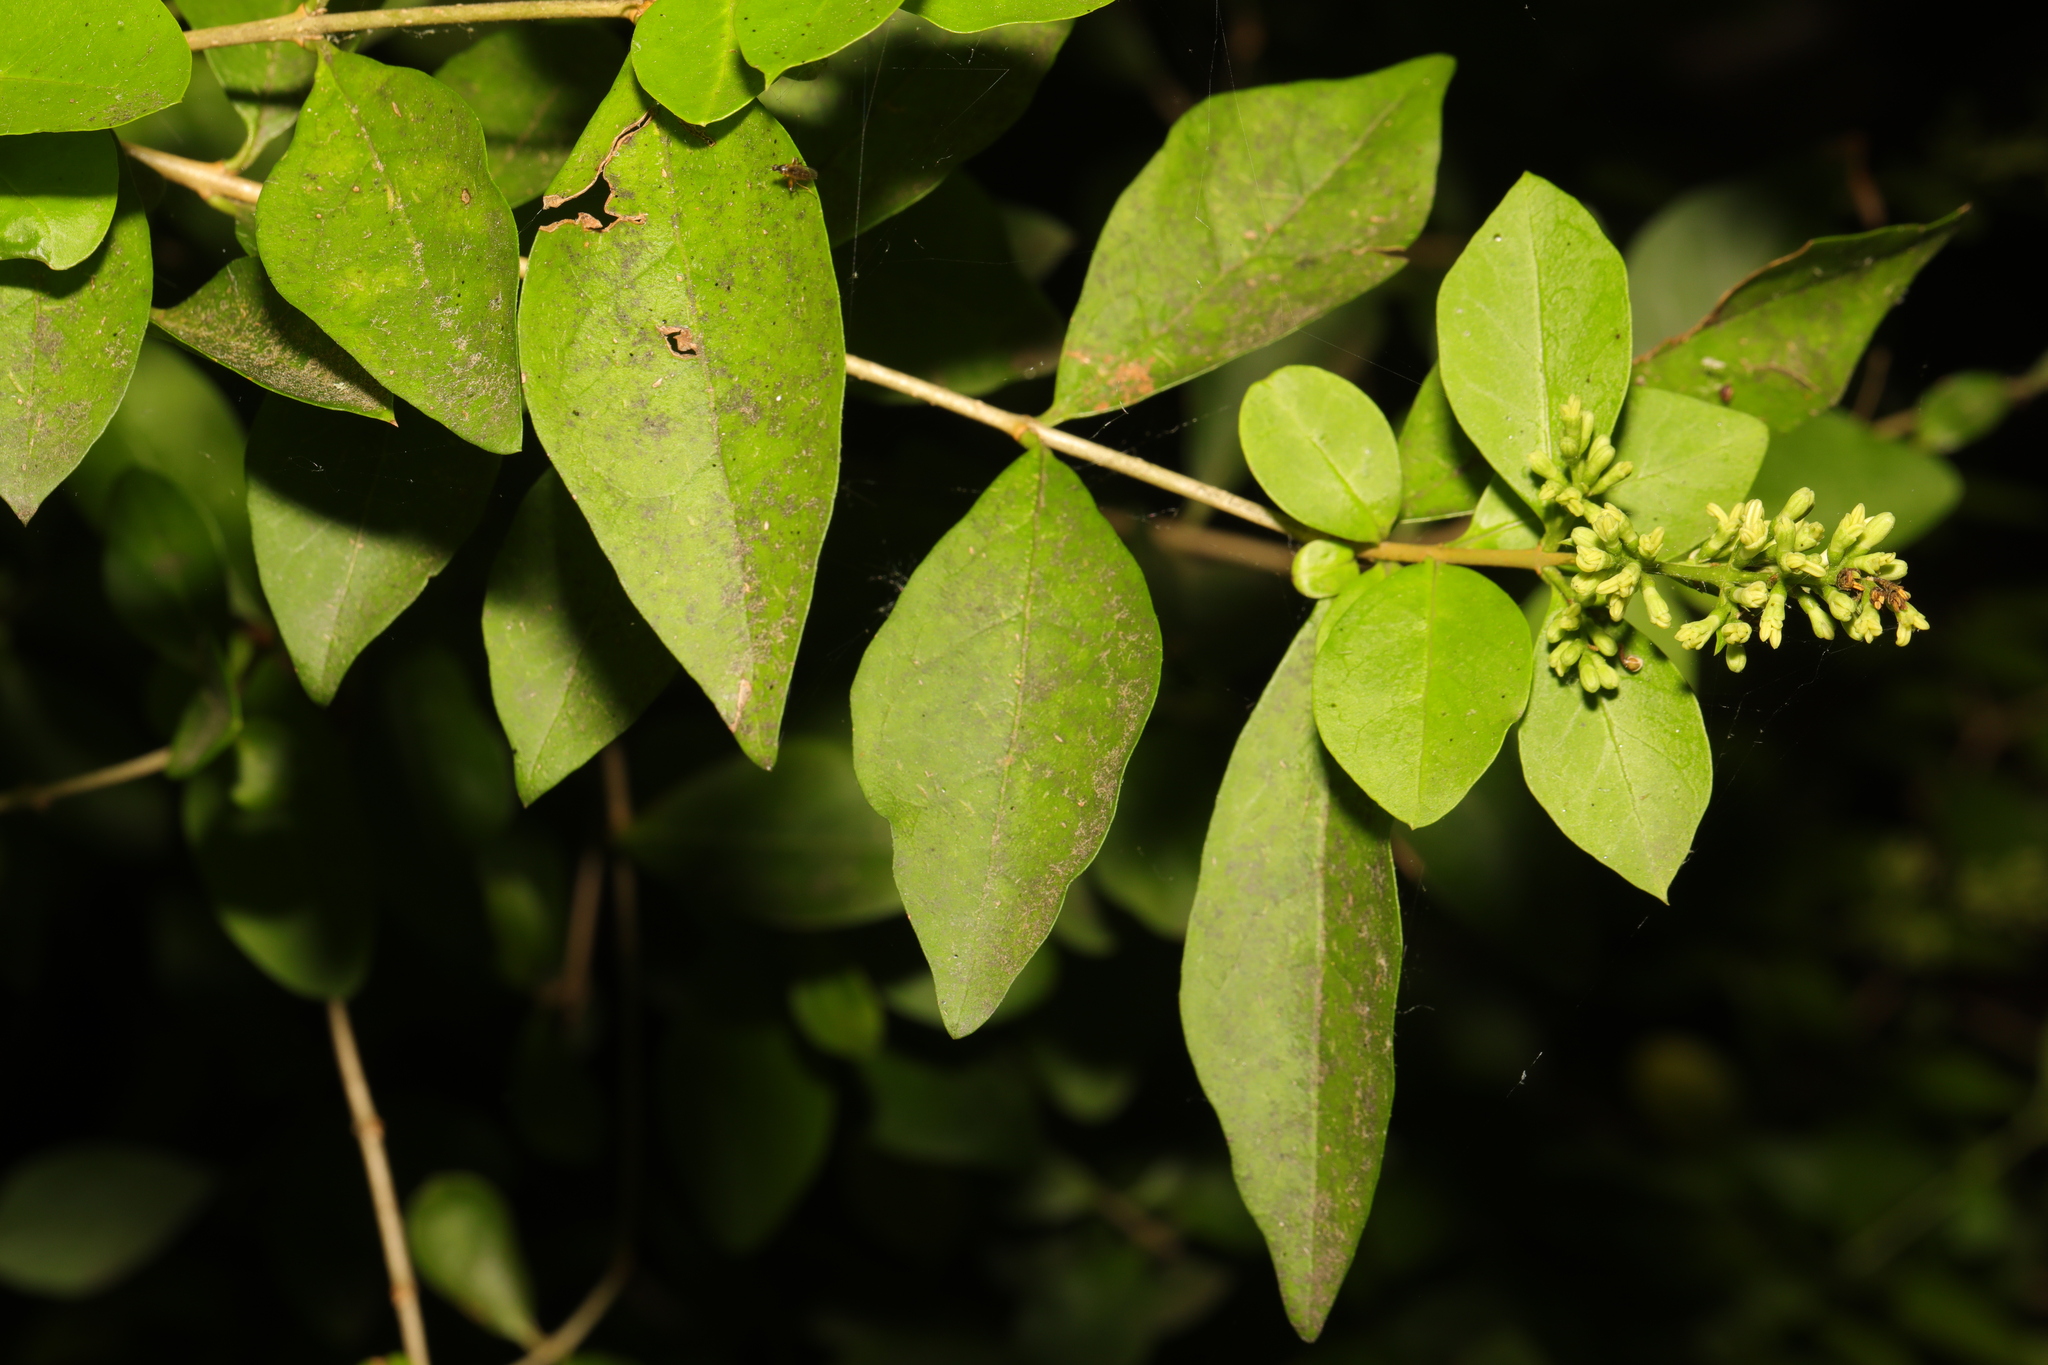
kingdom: Plantae
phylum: Tracheophyta
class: Magnoliopsida
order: Lamiales
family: Oleaceae
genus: Ligustrum
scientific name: Ligustrum ovalifolium
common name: California privet
